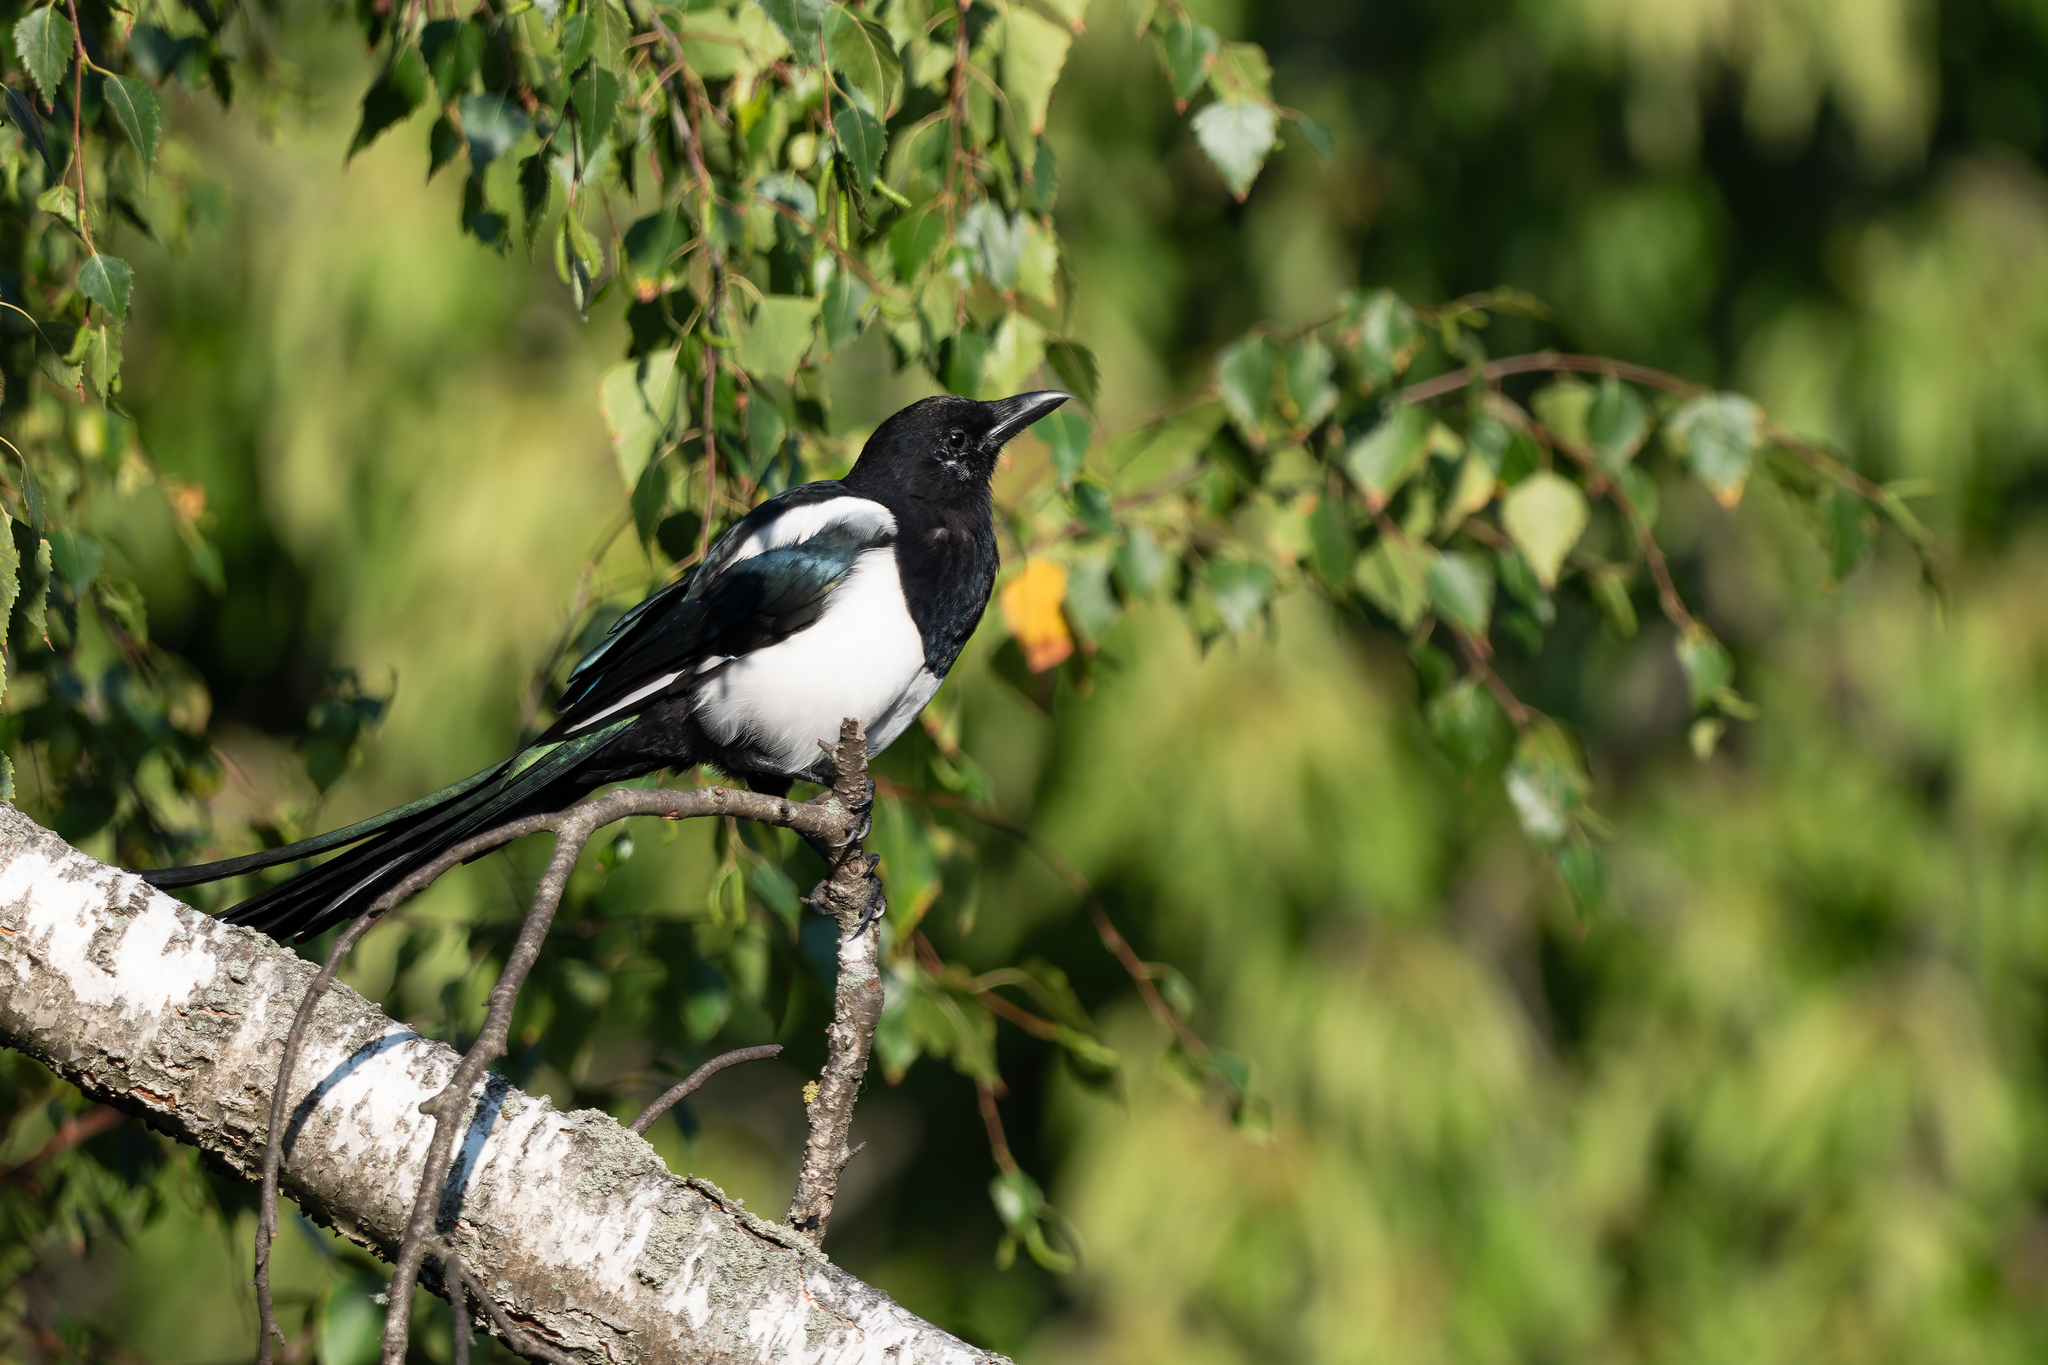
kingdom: Animalia
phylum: Chordata
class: Aves
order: Passeriformes
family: Corvidae
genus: Pica
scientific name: Pica pica
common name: Eurasian magpie
